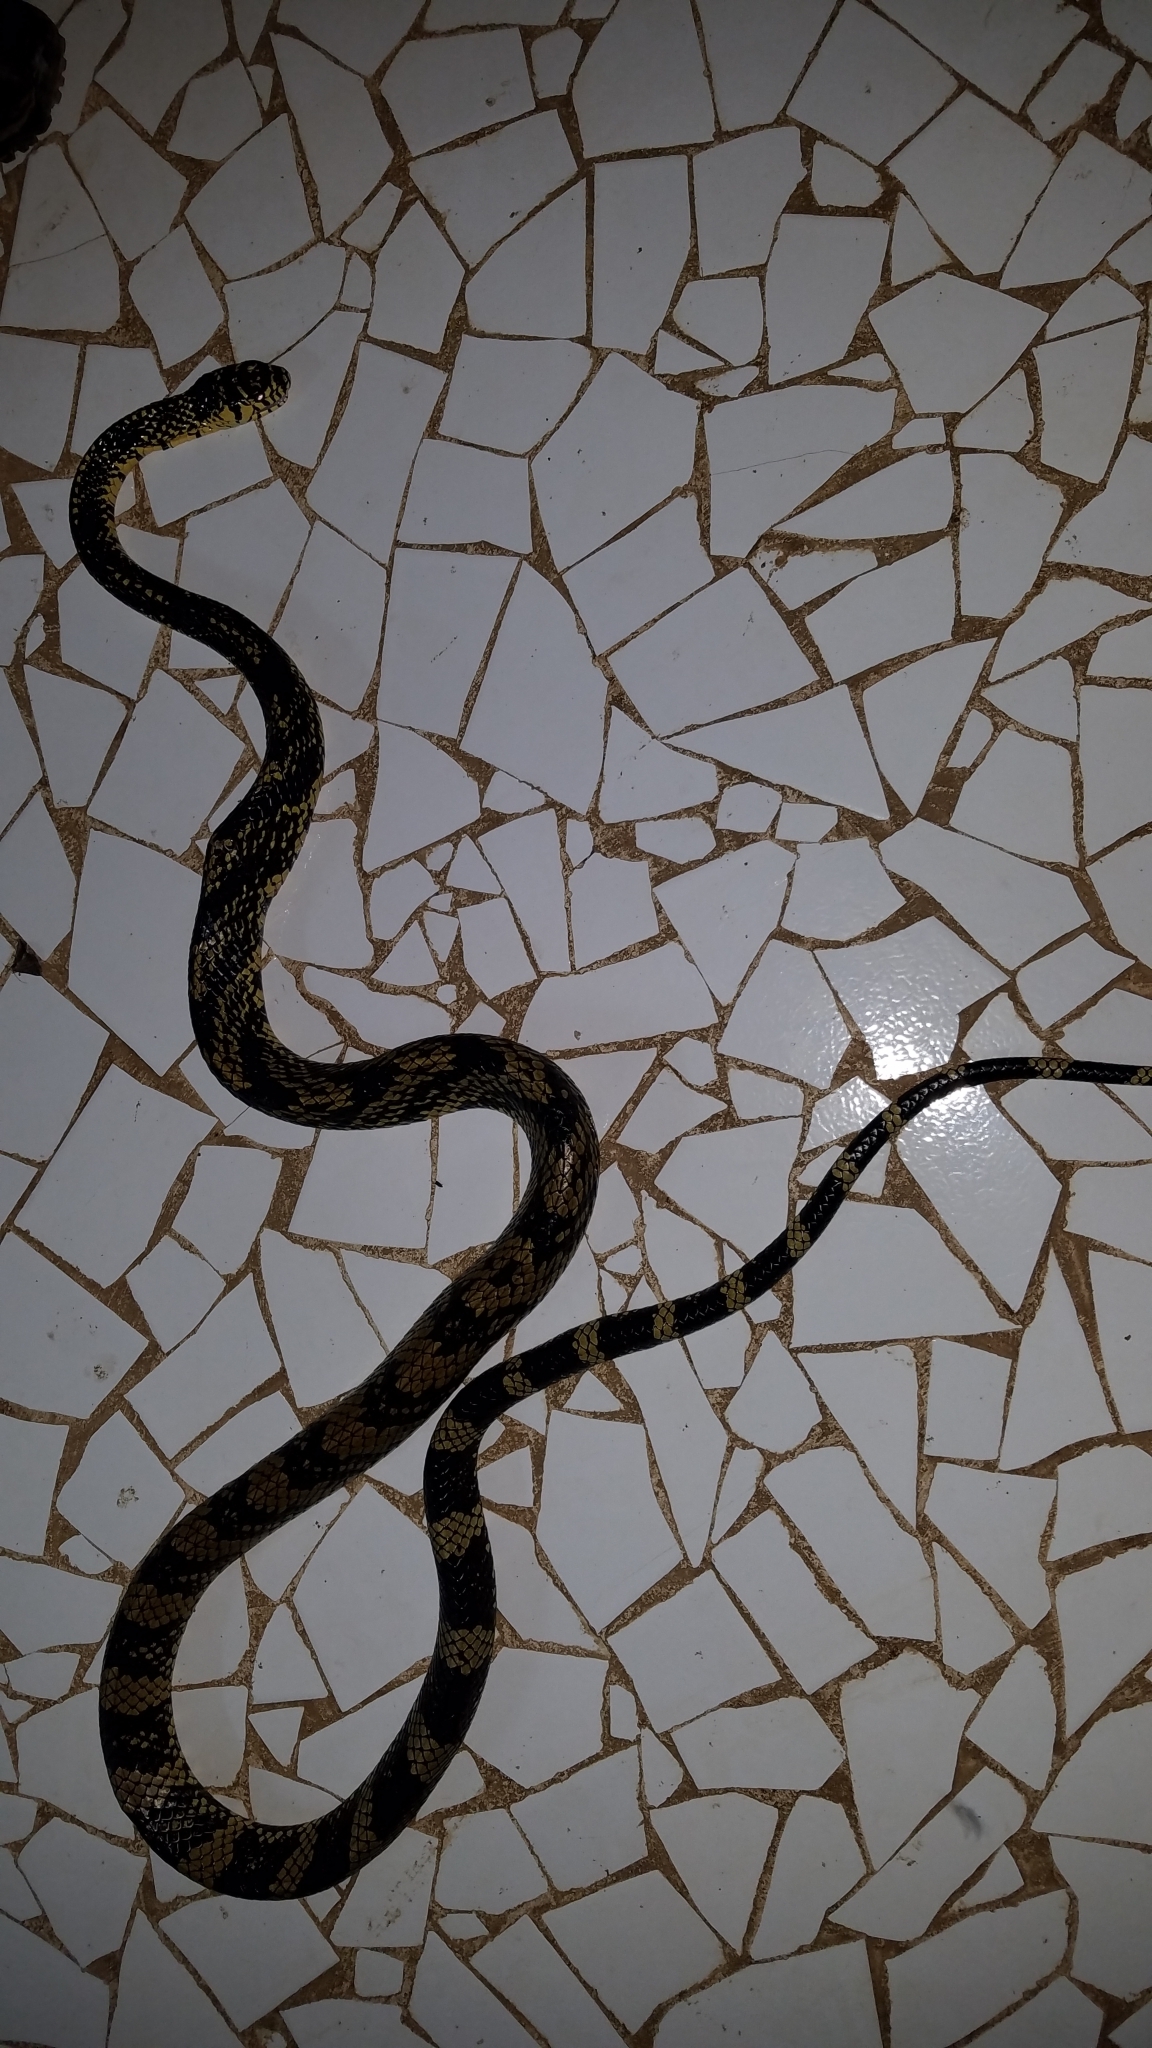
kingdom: Animalia
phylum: Chordata
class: Squamata
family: Colubridae
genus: Spilotes
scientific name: Spilotes pullatus
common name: Chicken snake
